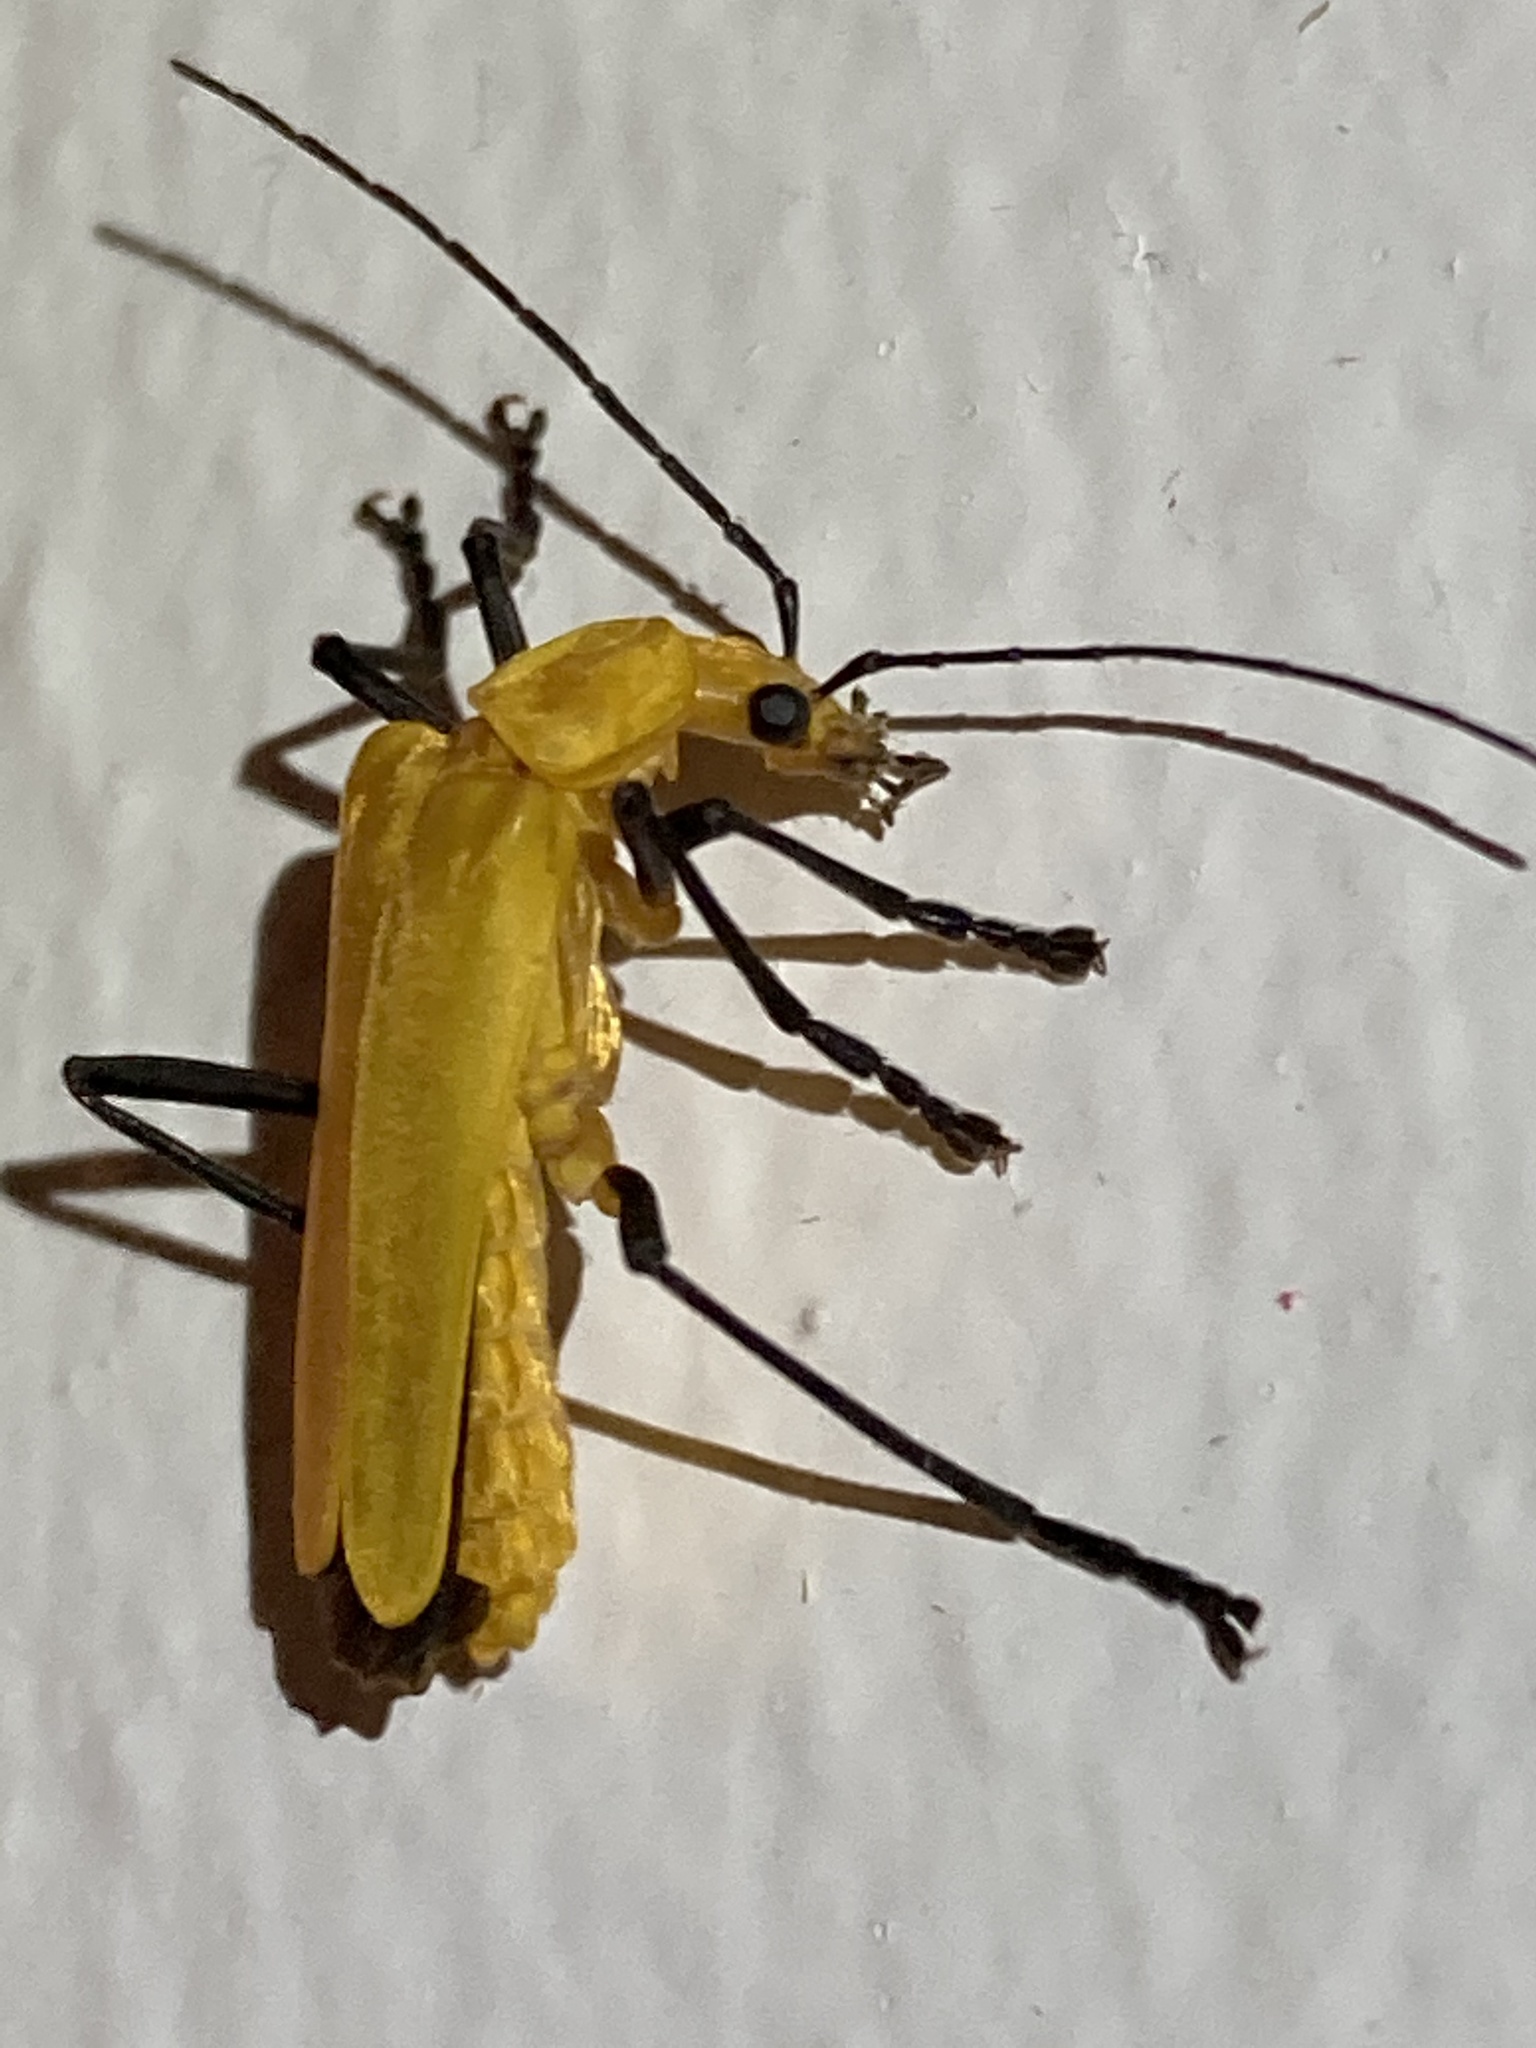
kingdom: Animalia
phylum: Arthropoda
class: Insecta
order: Coleoptera
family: Cantharidae
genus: Chauliognathus
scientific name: Chauliognathus sulphureus
